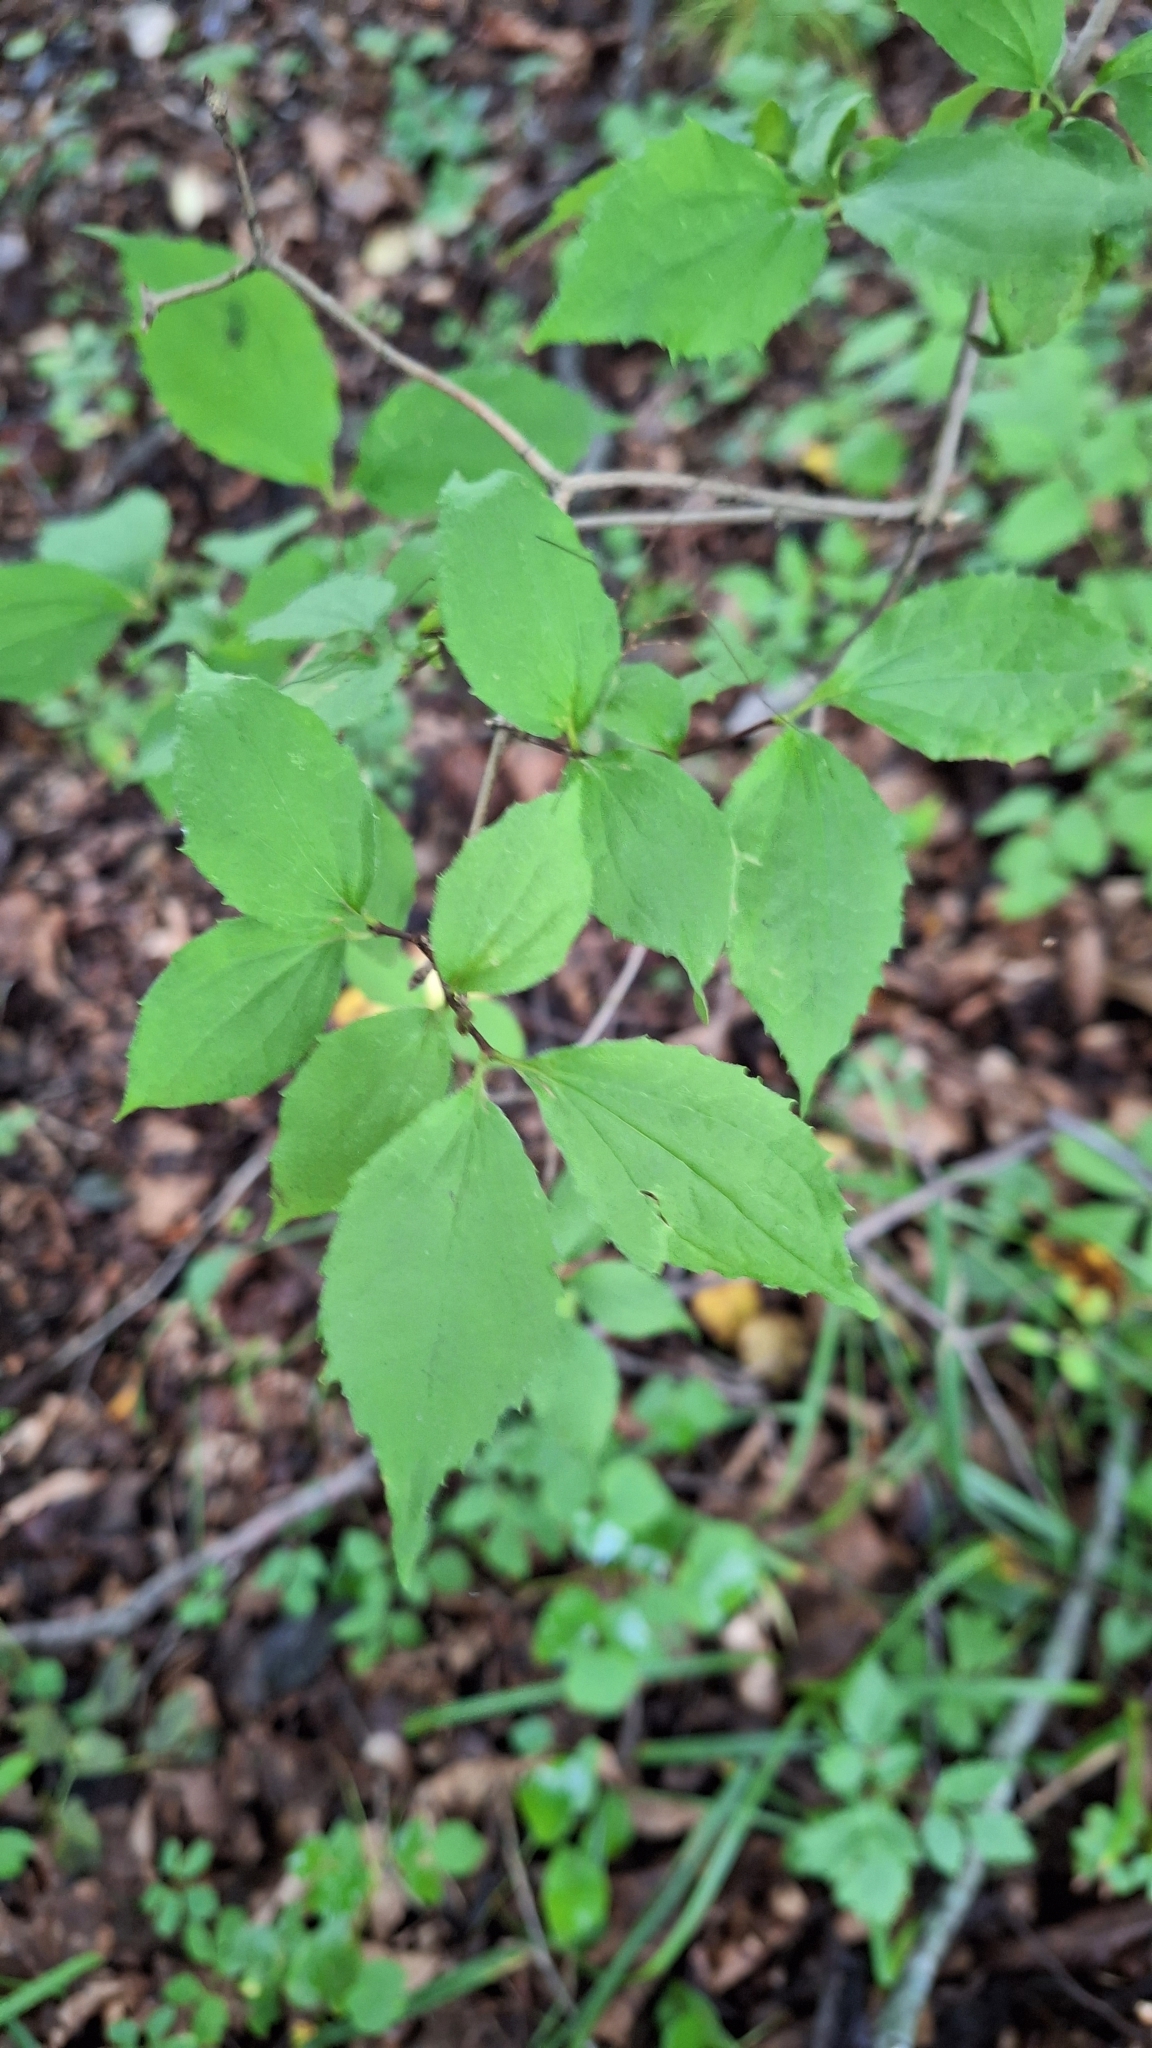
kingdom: Plantae
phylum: Tracheophyta
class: Magnoliopsida
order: Cornales
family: Hydrangeaceae
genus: Philadelphus
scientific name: Philadelphus tenuifolius
